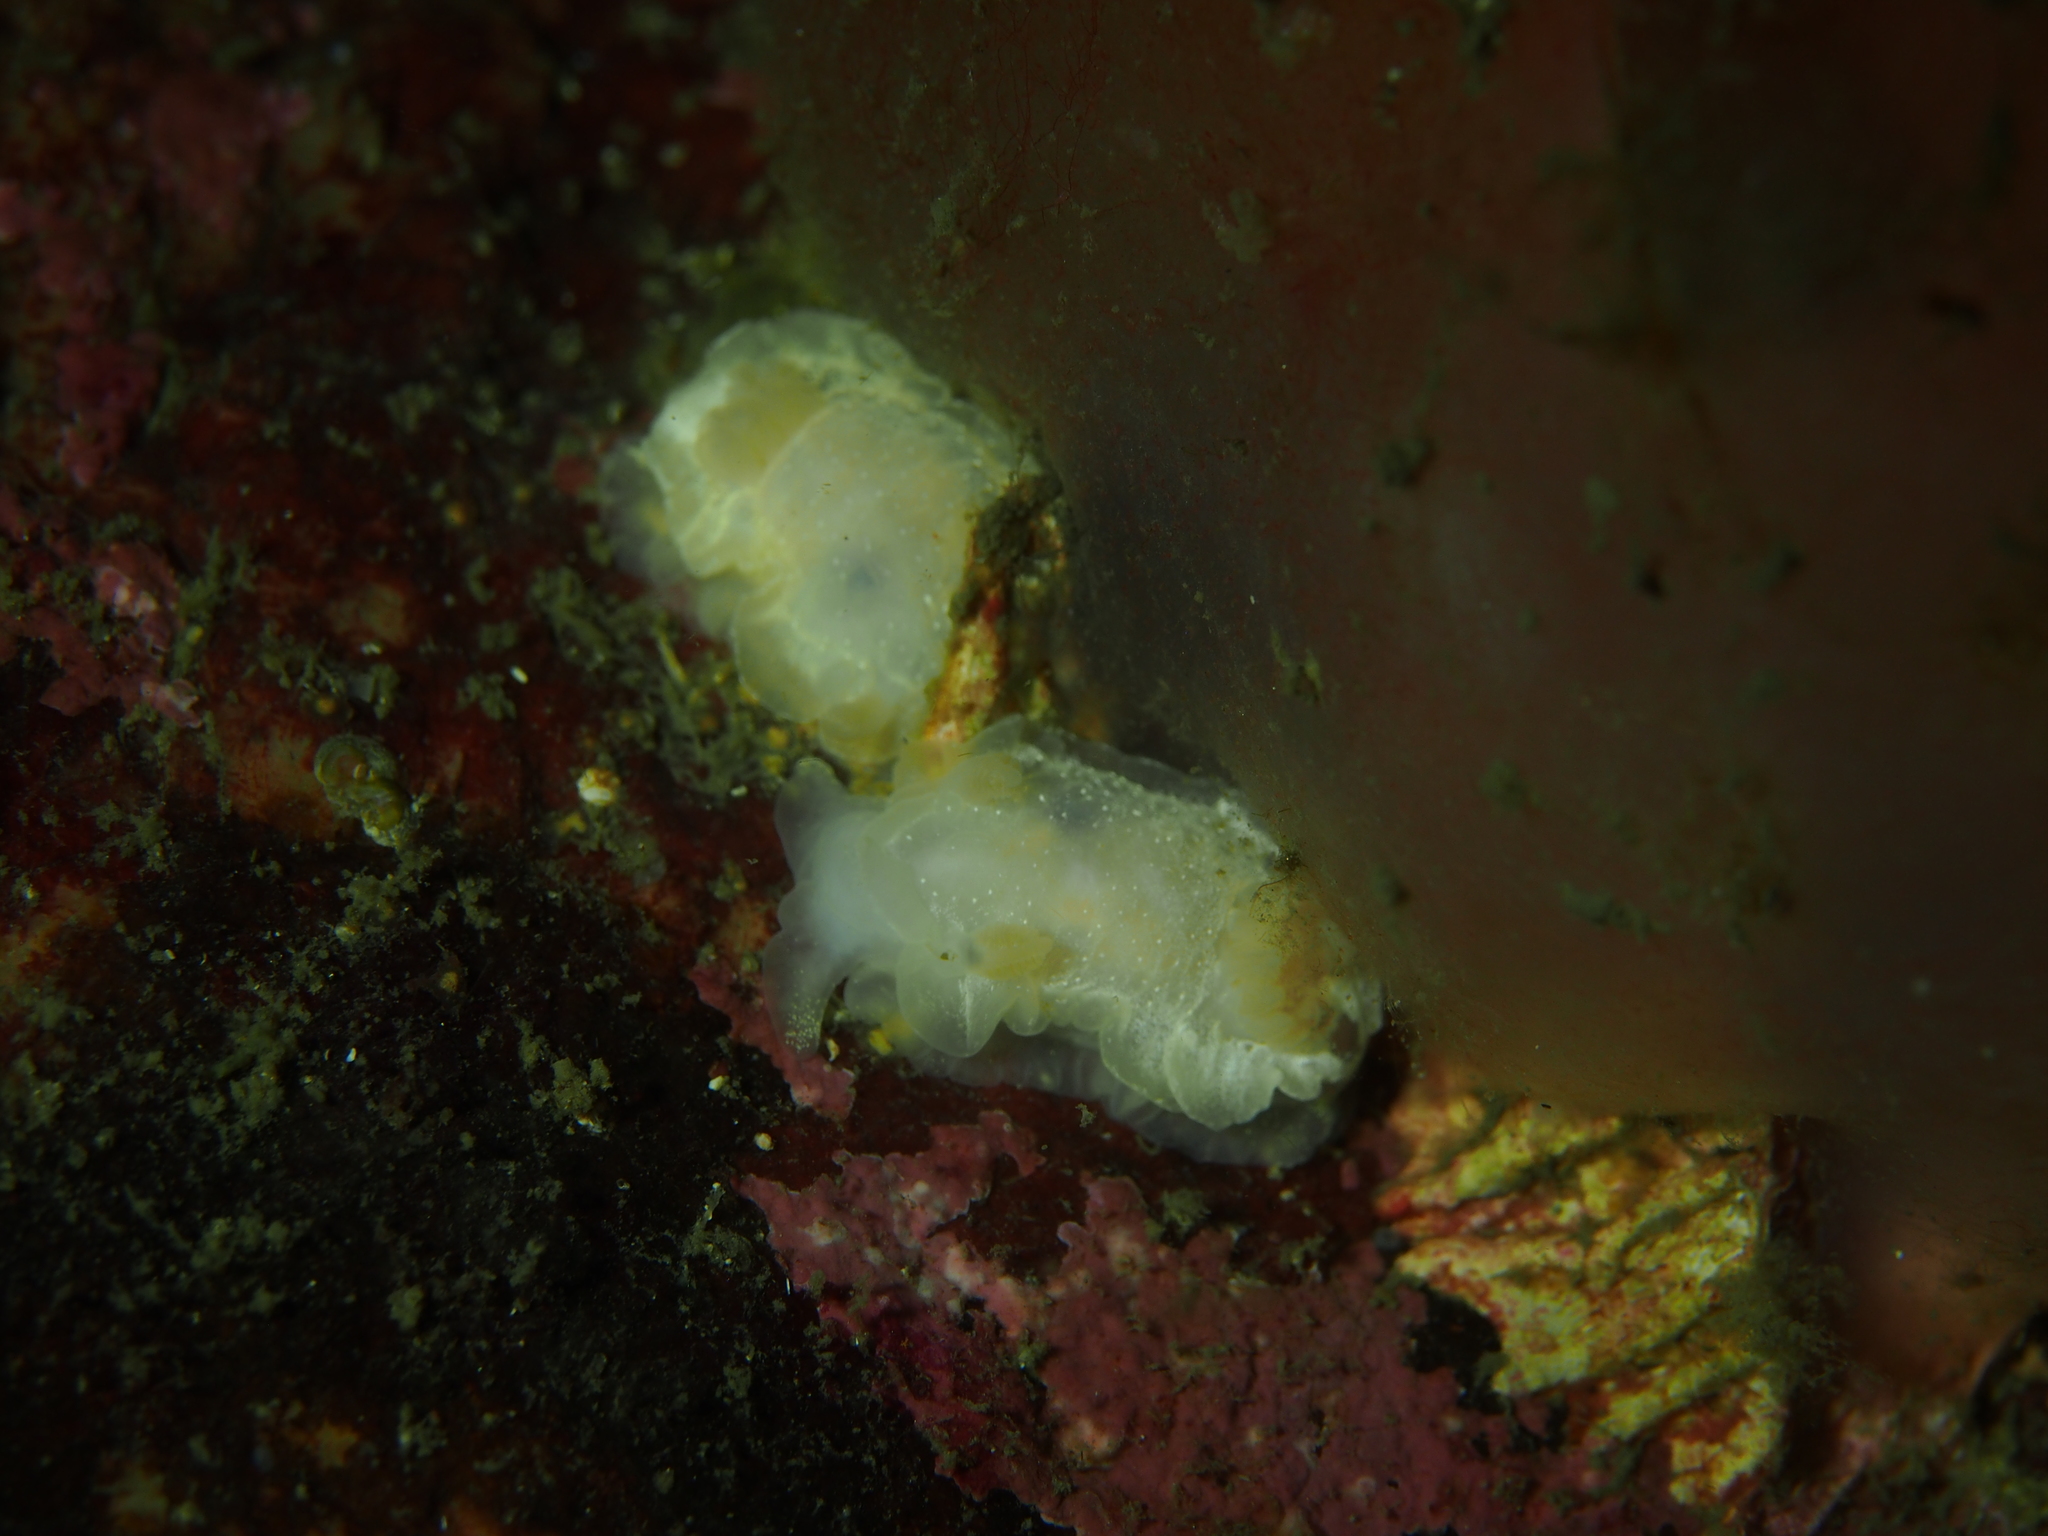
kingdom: Animalia
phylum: Mollusca
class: Gastropoda
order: Nudibranchia
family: Goniodorididae
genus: Okenia
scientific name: Okenia
